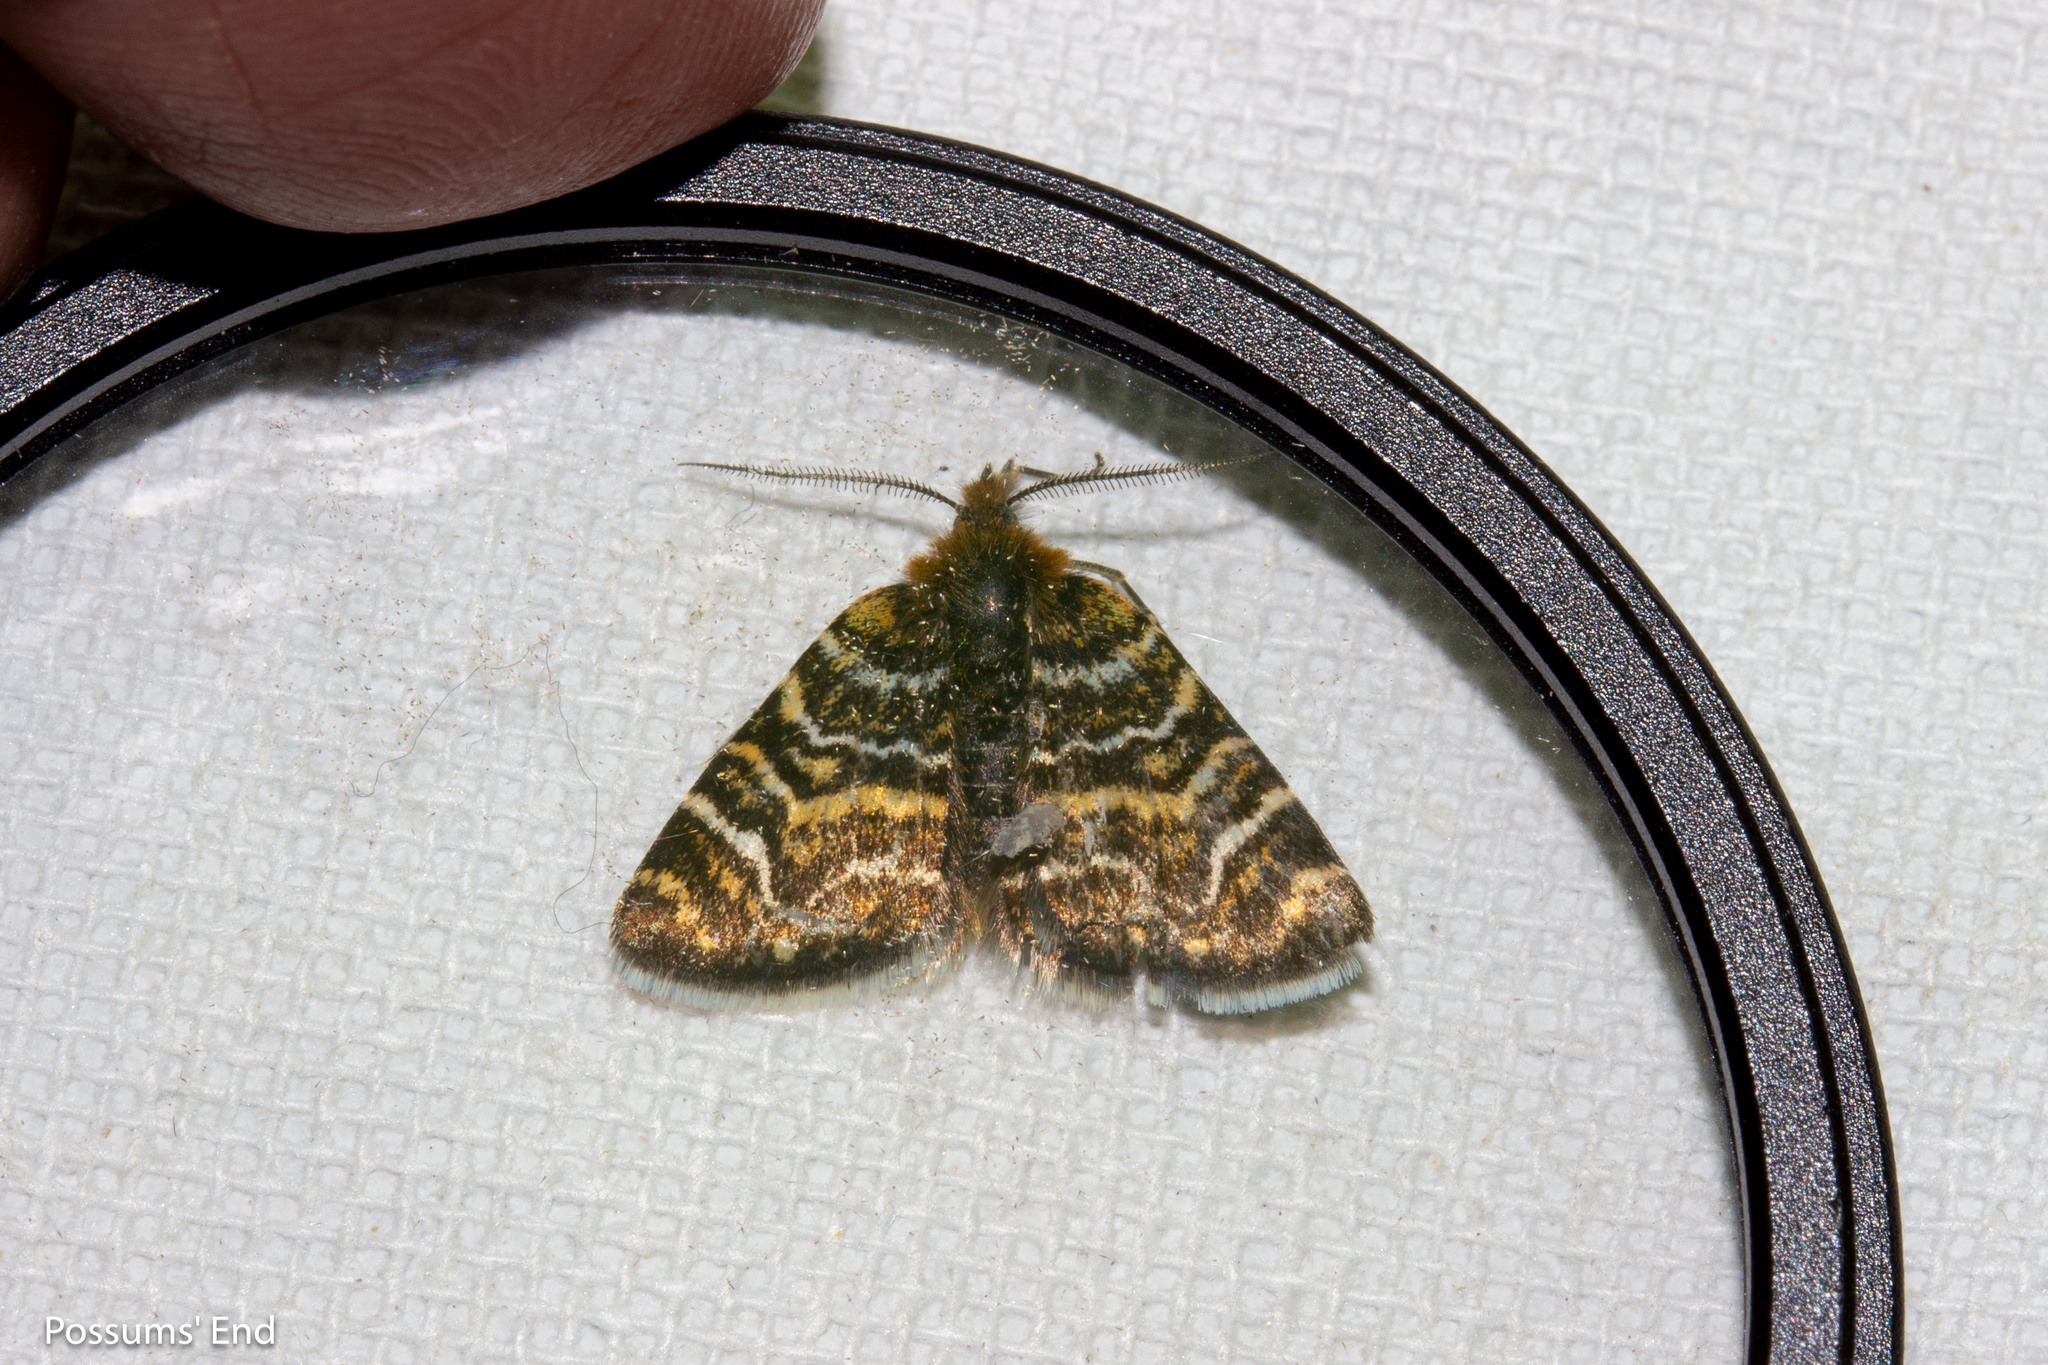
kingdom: Animalia
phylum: Arthropoda
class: Insecta
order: Lepidoptera
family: Geometridae
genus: Notoreas
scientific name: Notoreas chioneres
